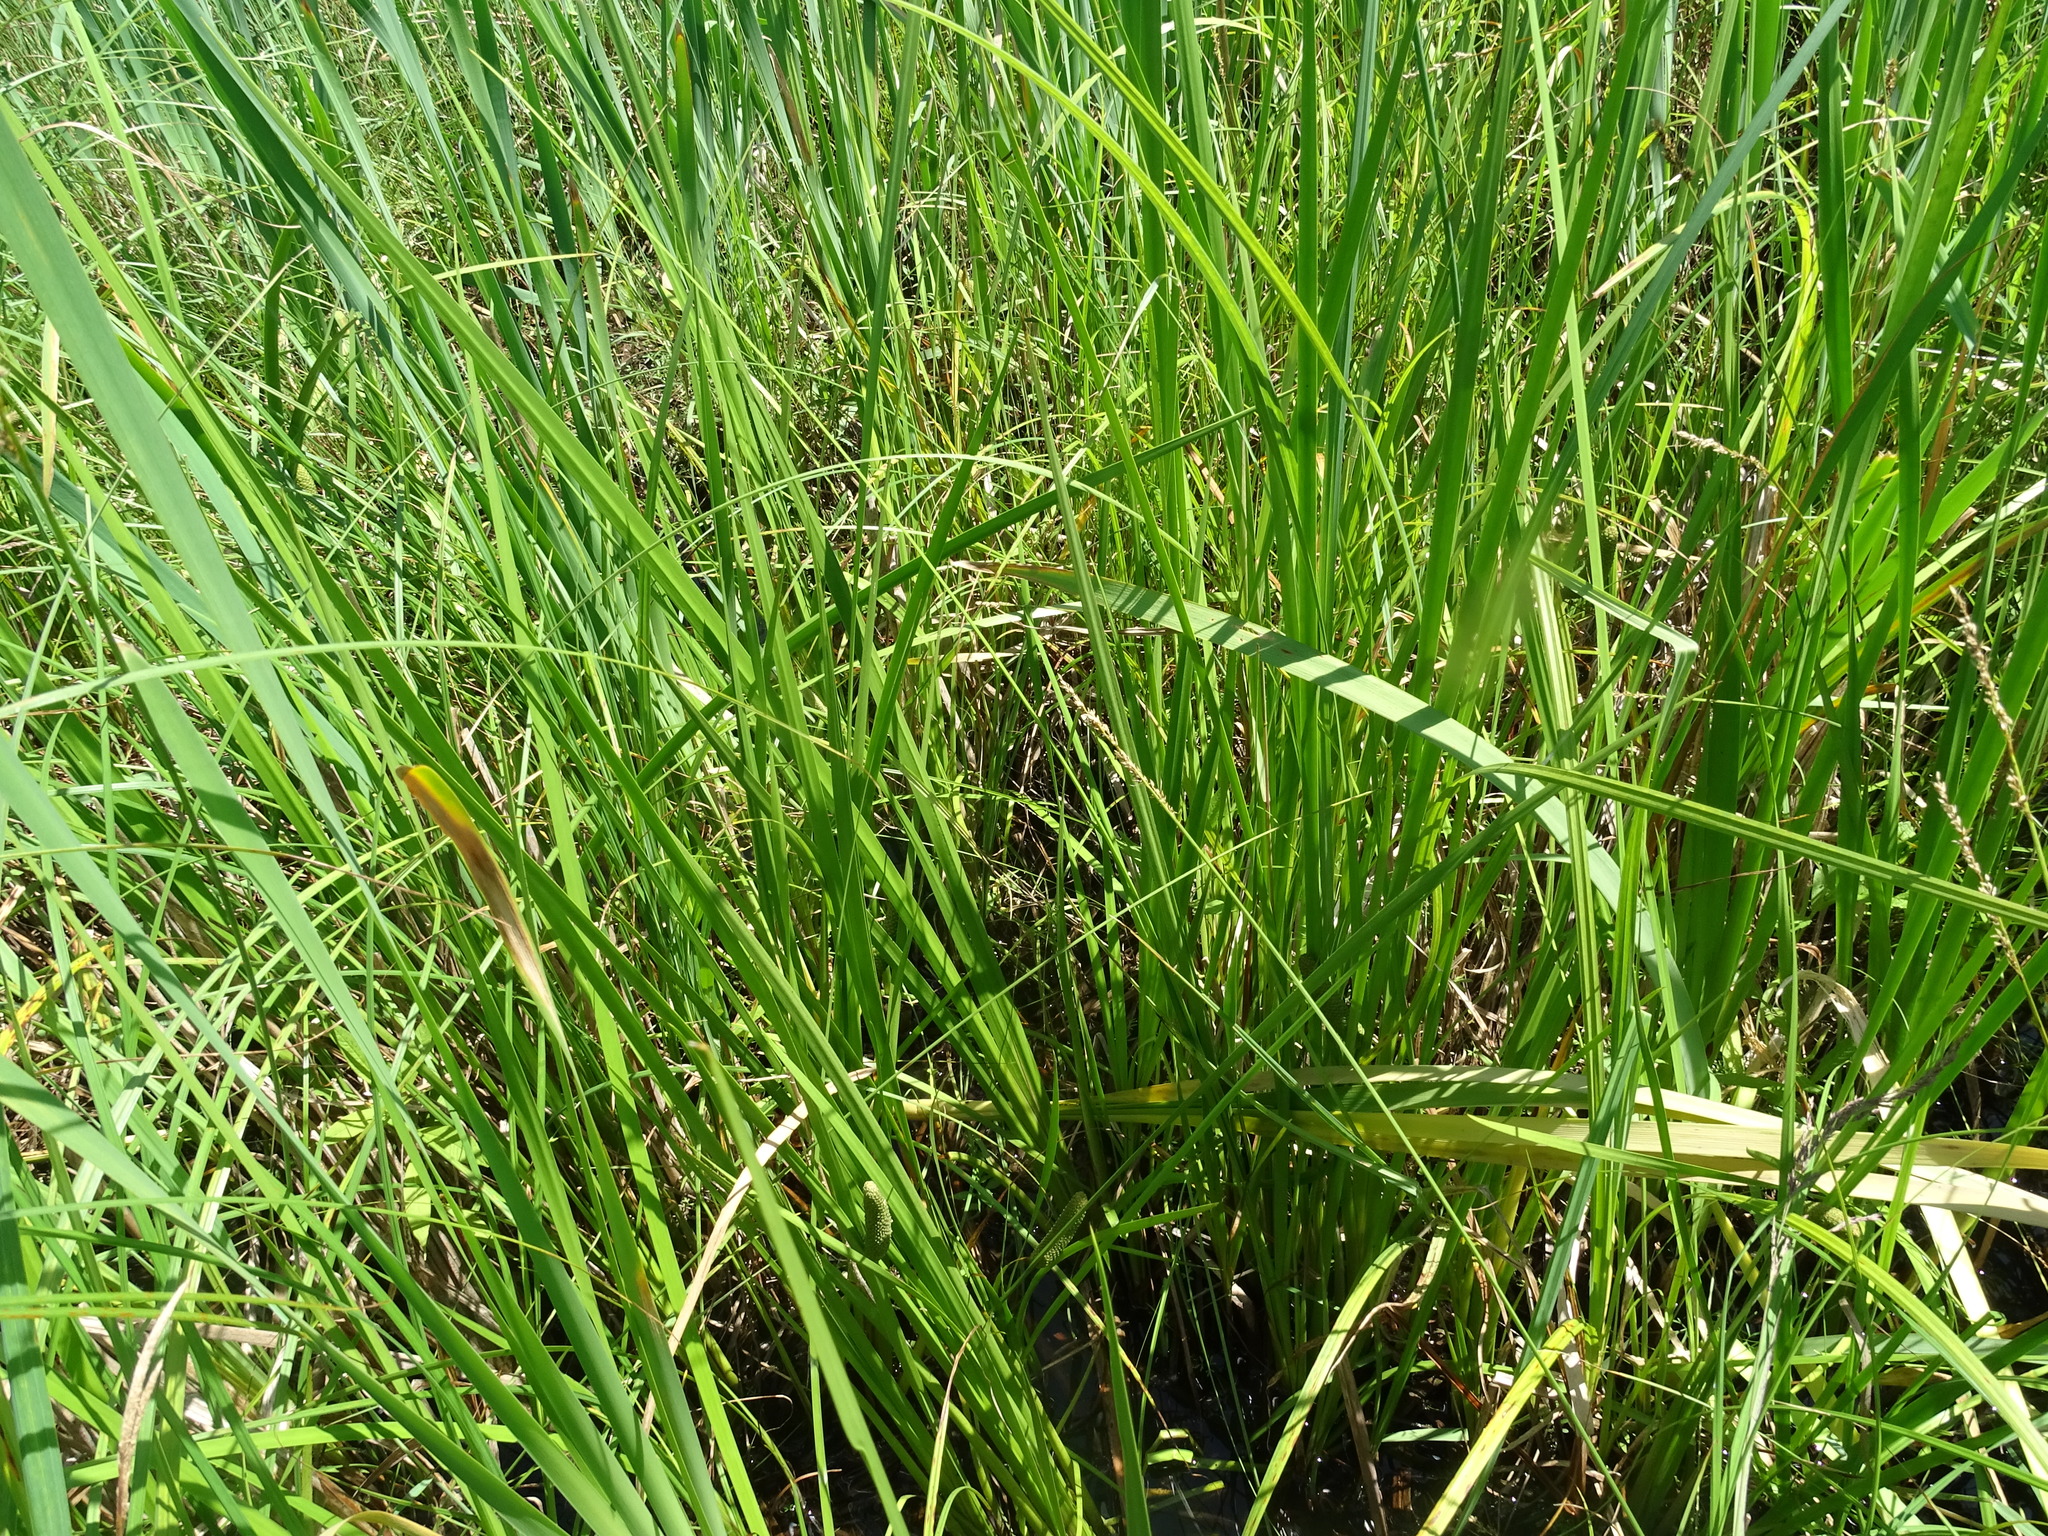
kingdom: Plantae
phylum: Tracheophyta
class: Liliopsida
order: Acorales
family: Acoraceae
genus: Acorus
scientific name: Acorus calamus
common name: Sweet-flag
